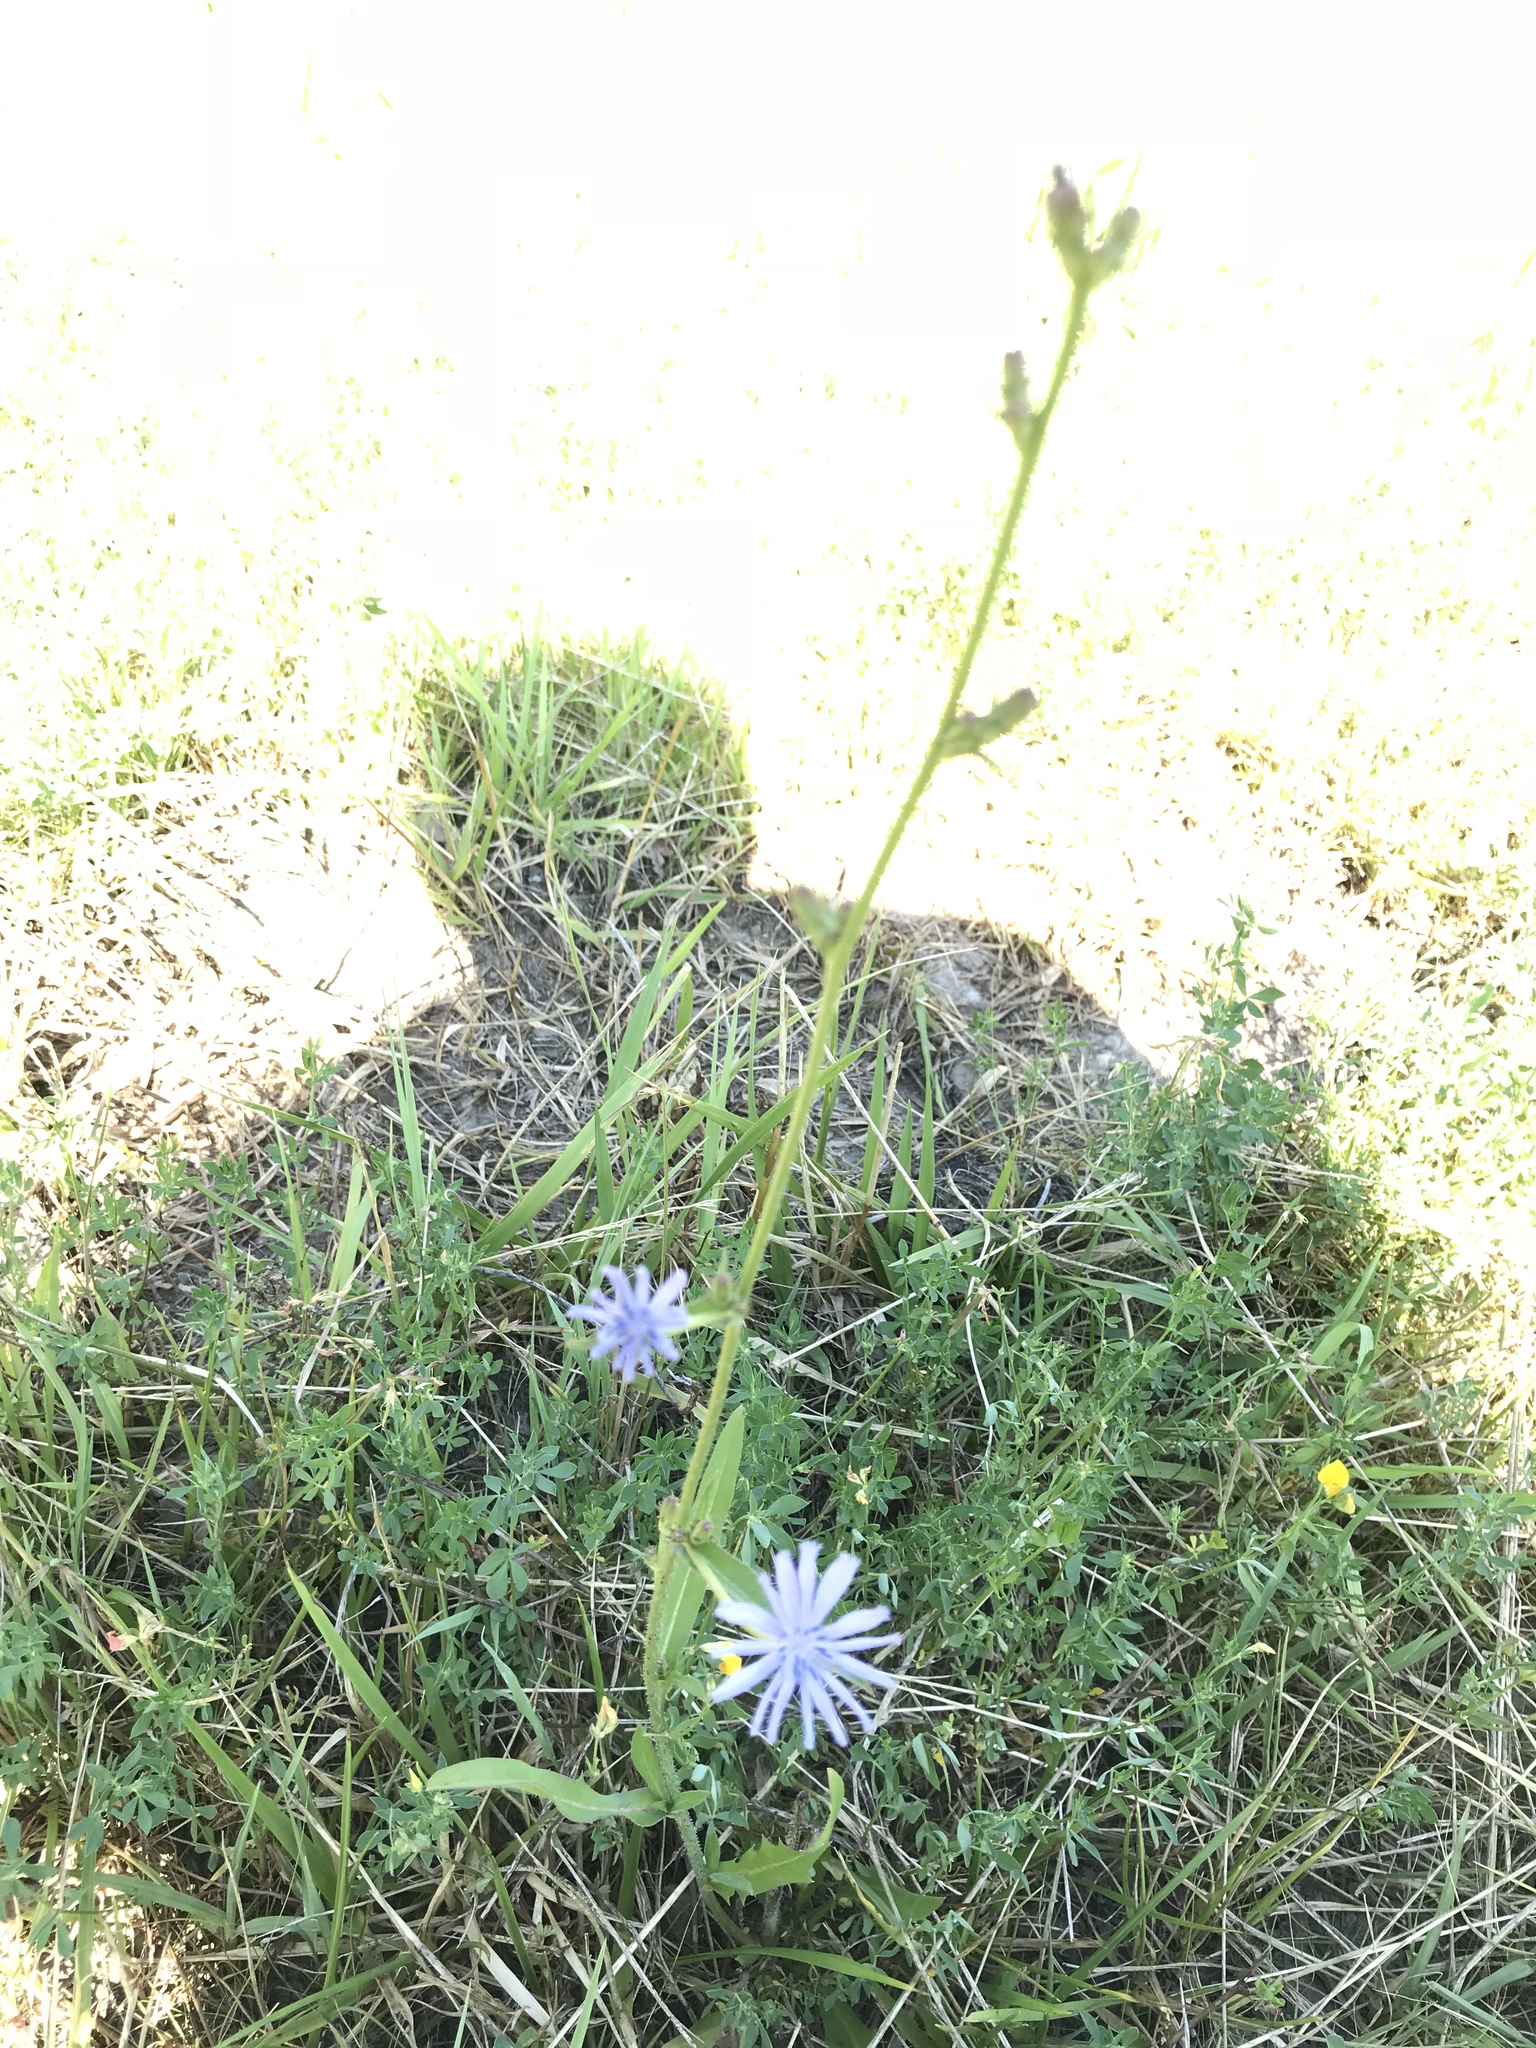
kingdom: Plantae
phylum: Tracheophyta
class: Magnoliopsida
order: Asterales
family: Asteraceae
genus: Cichorium
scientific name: Cichorium intybus
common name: Chicory
